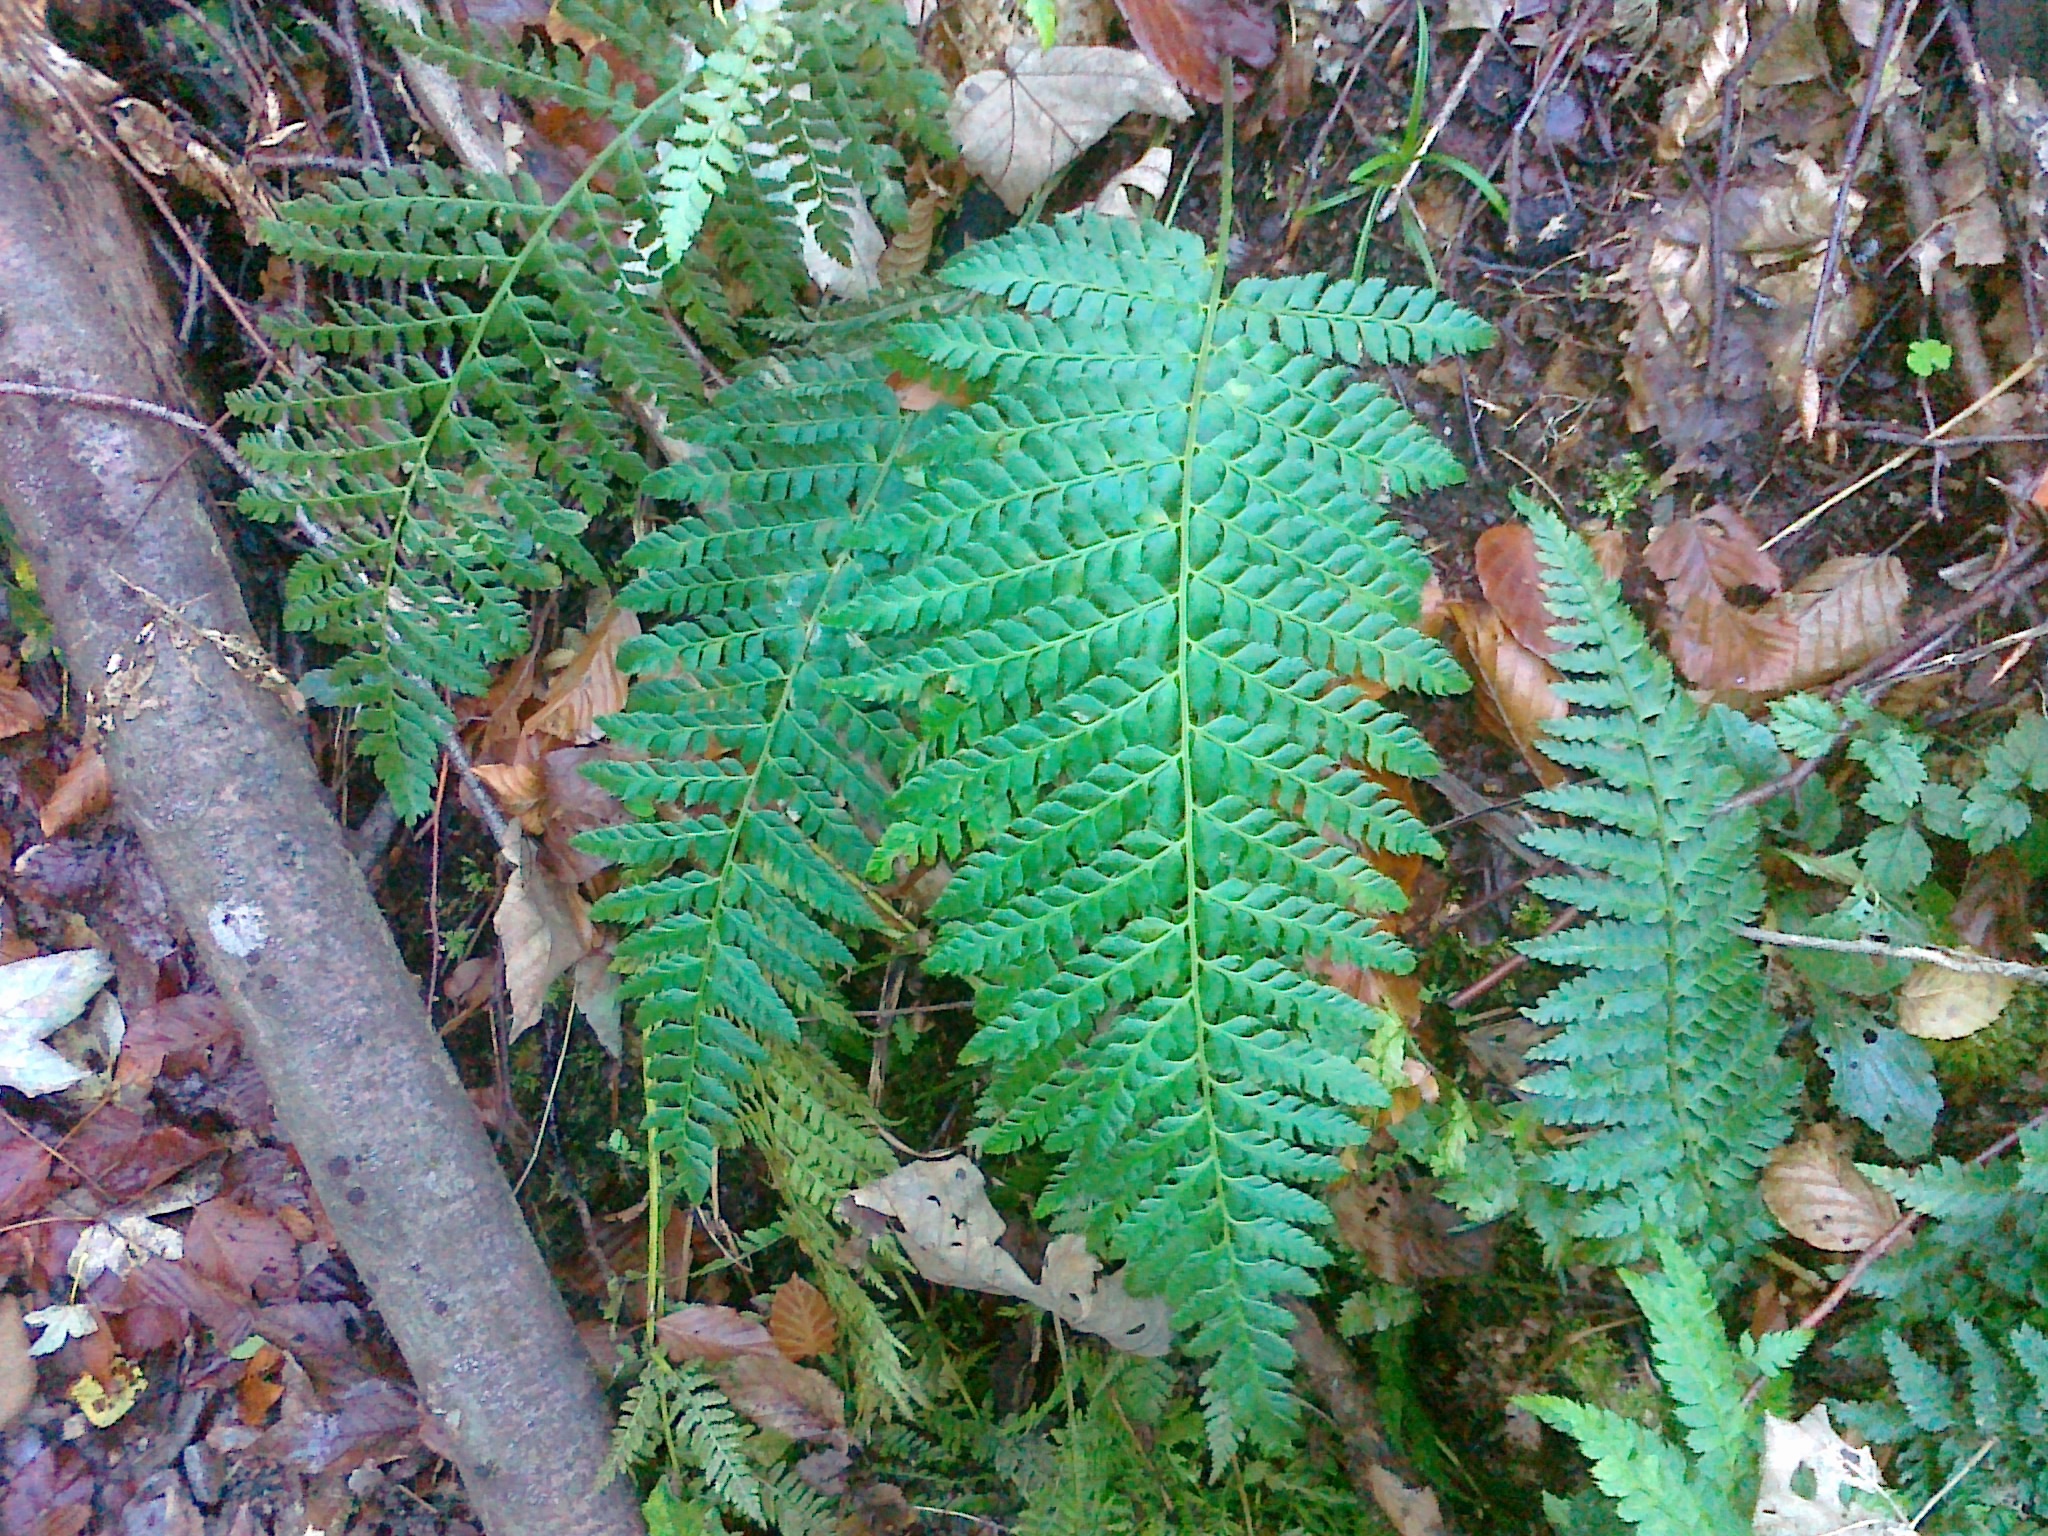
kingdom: Plantae
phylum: Tracheophyta
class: Polypodiopsida
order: Polypodiales
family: Dryopteridaceae
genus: Polystichum
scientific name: Polystichum bicknellii
